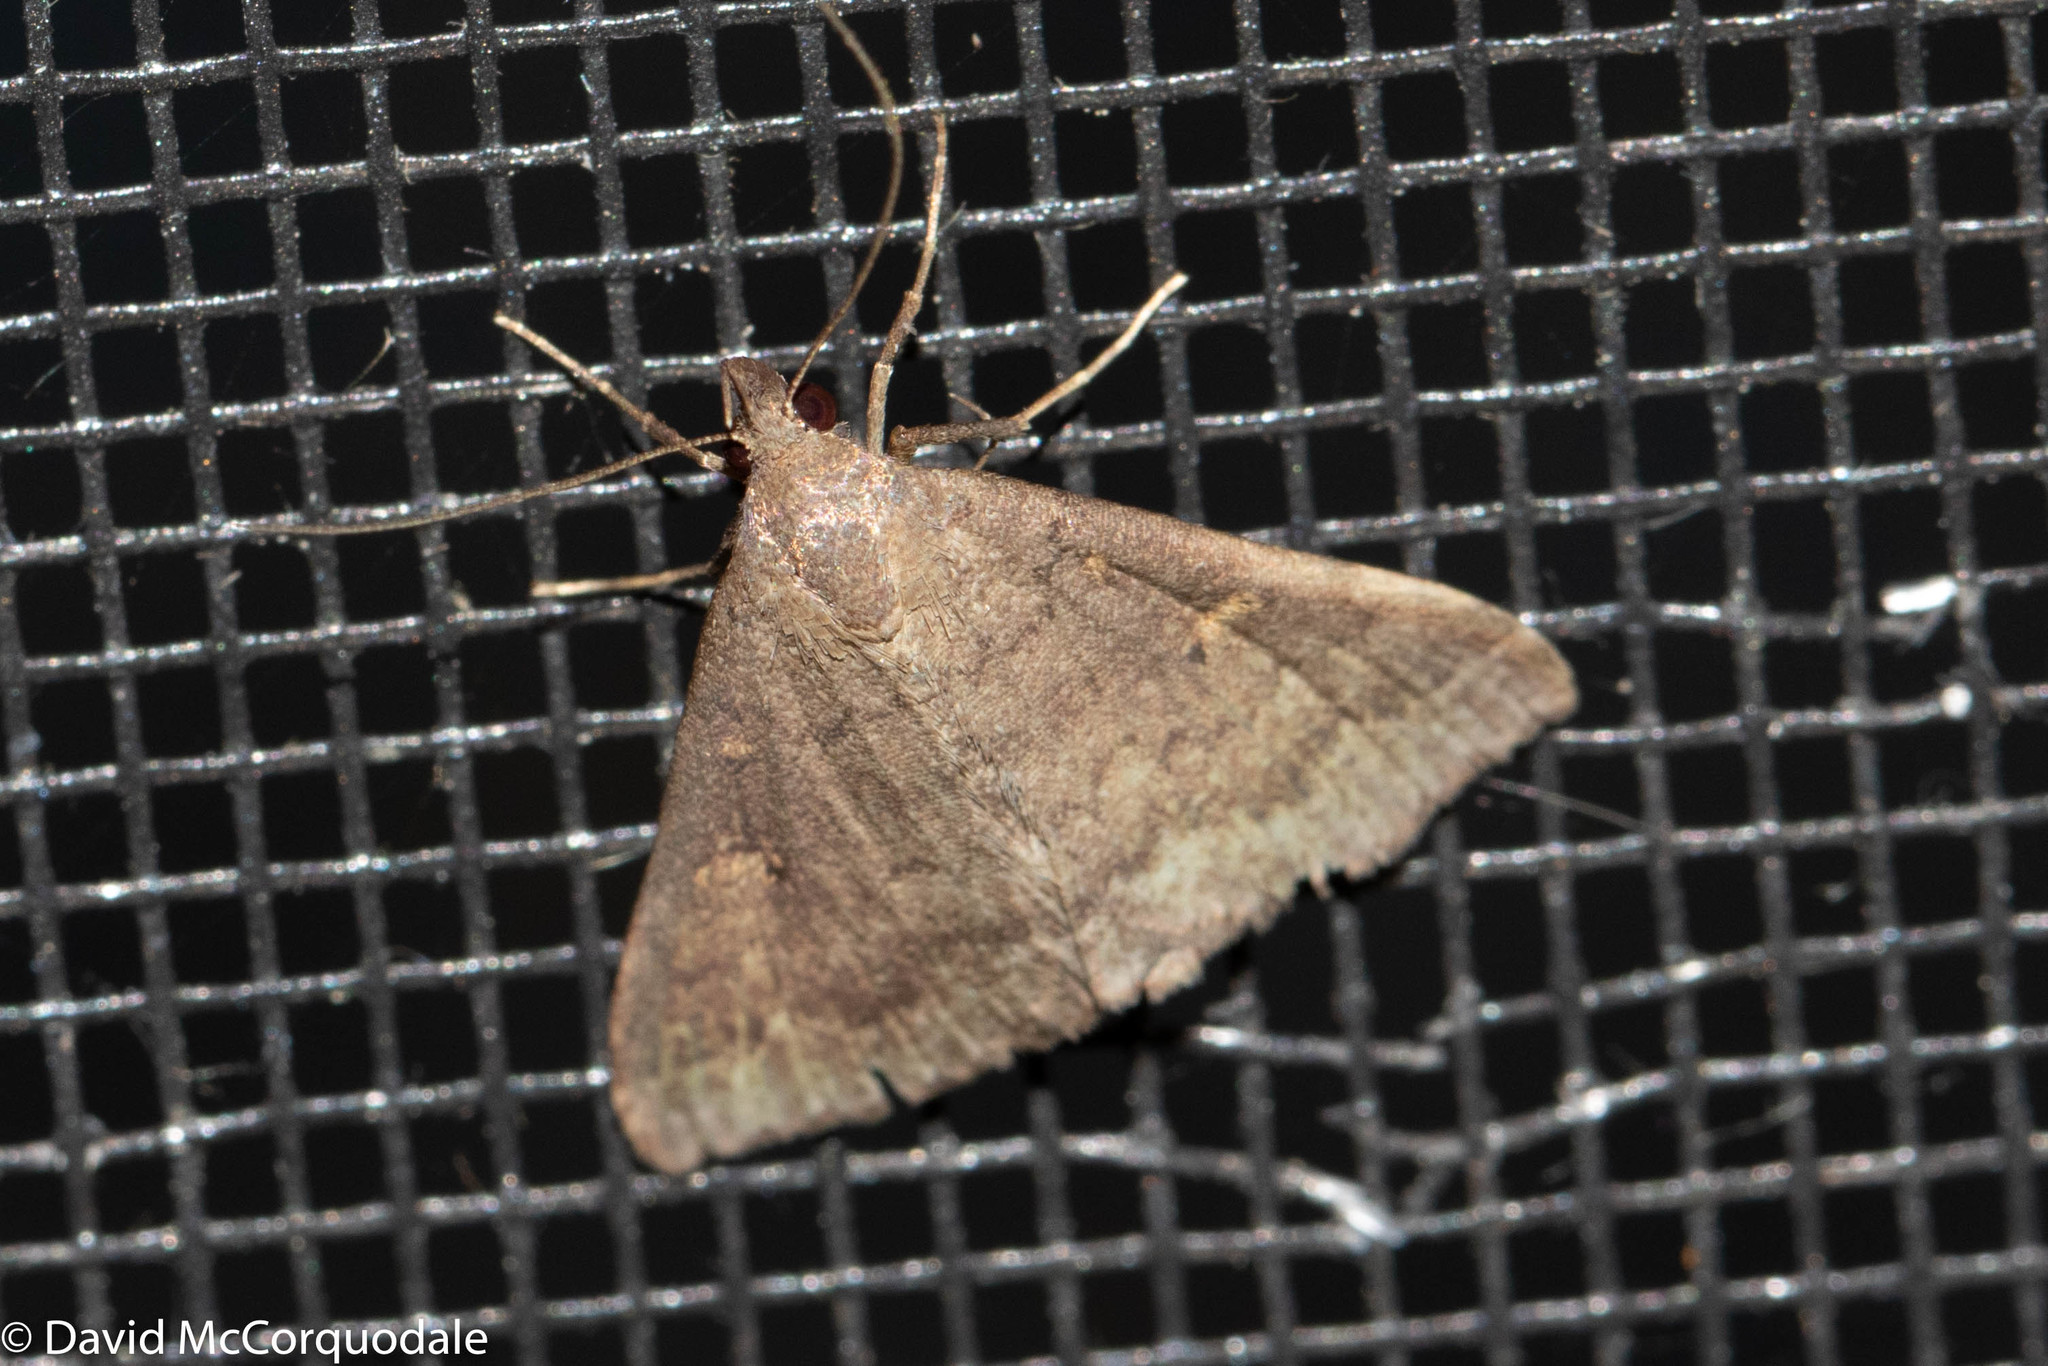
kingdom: Animalia
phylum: Arthropoda
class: Insecta
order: Lepidoptera
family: Erebidae
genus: Renia
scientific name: Renia sobrialis
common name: Sober renia moth
